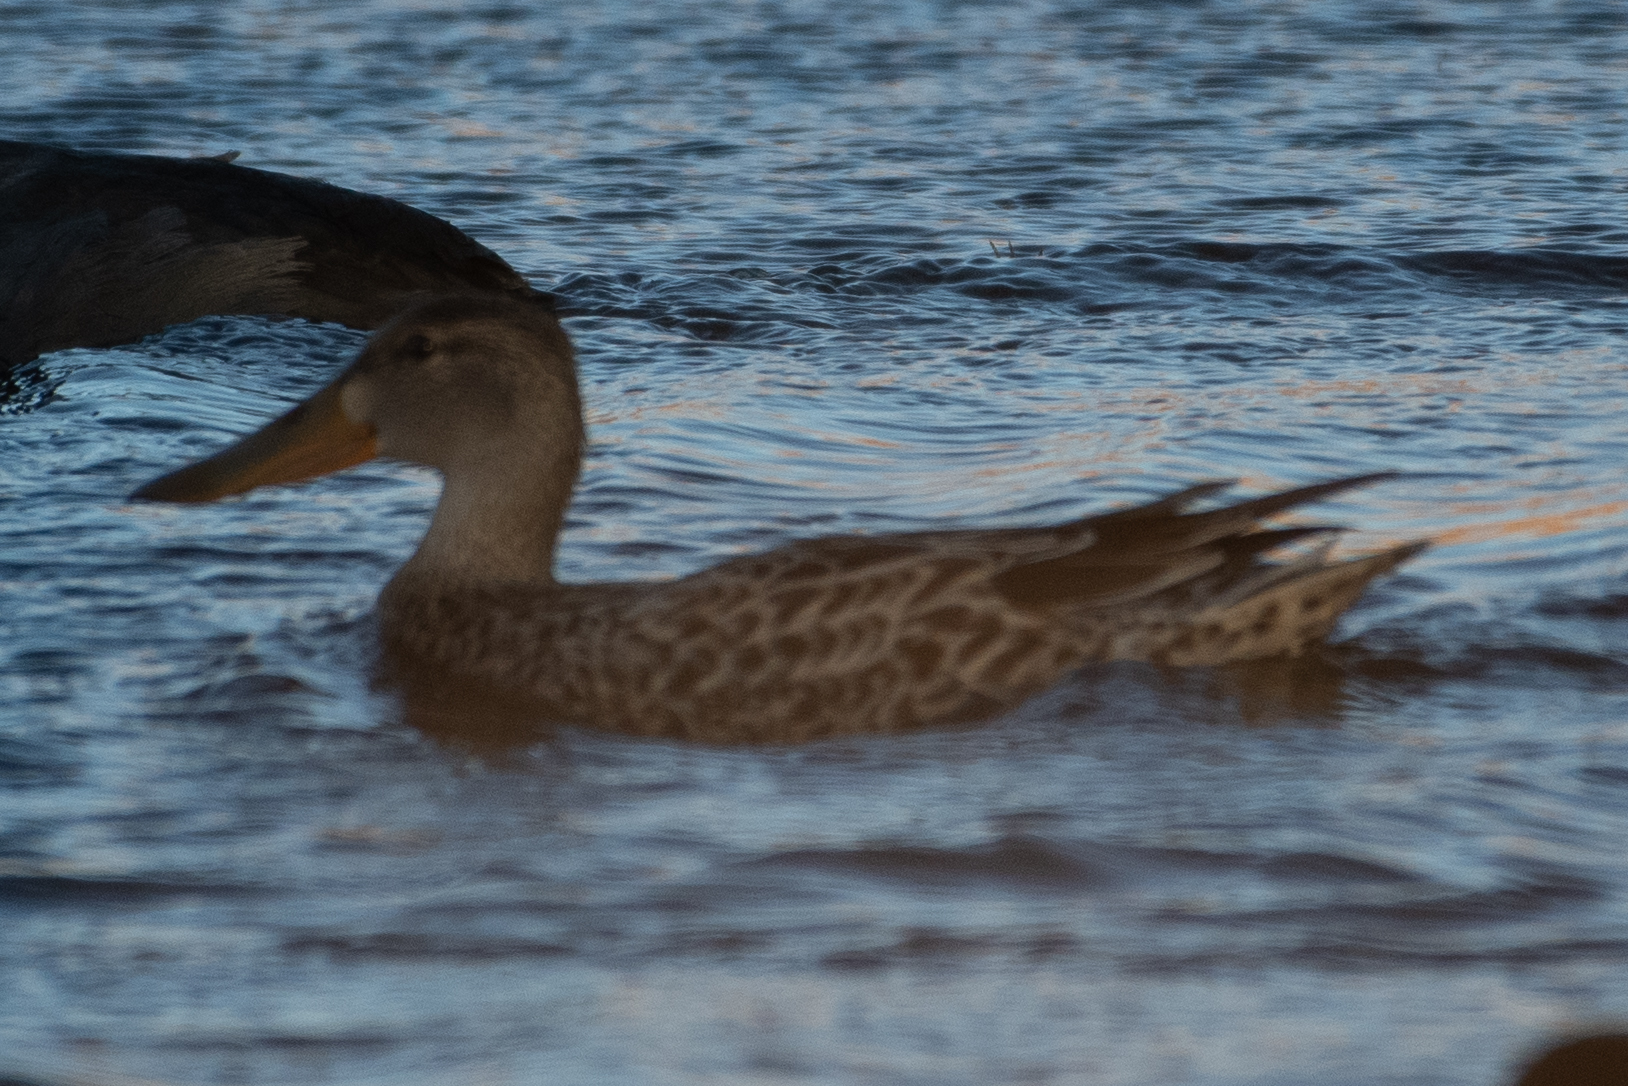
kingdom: Animalia
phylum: Chordata
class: Aves
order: Anseriformes
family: Anatidae
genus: Spatula
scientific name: Spatula clypeata
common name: Northern shoveler
